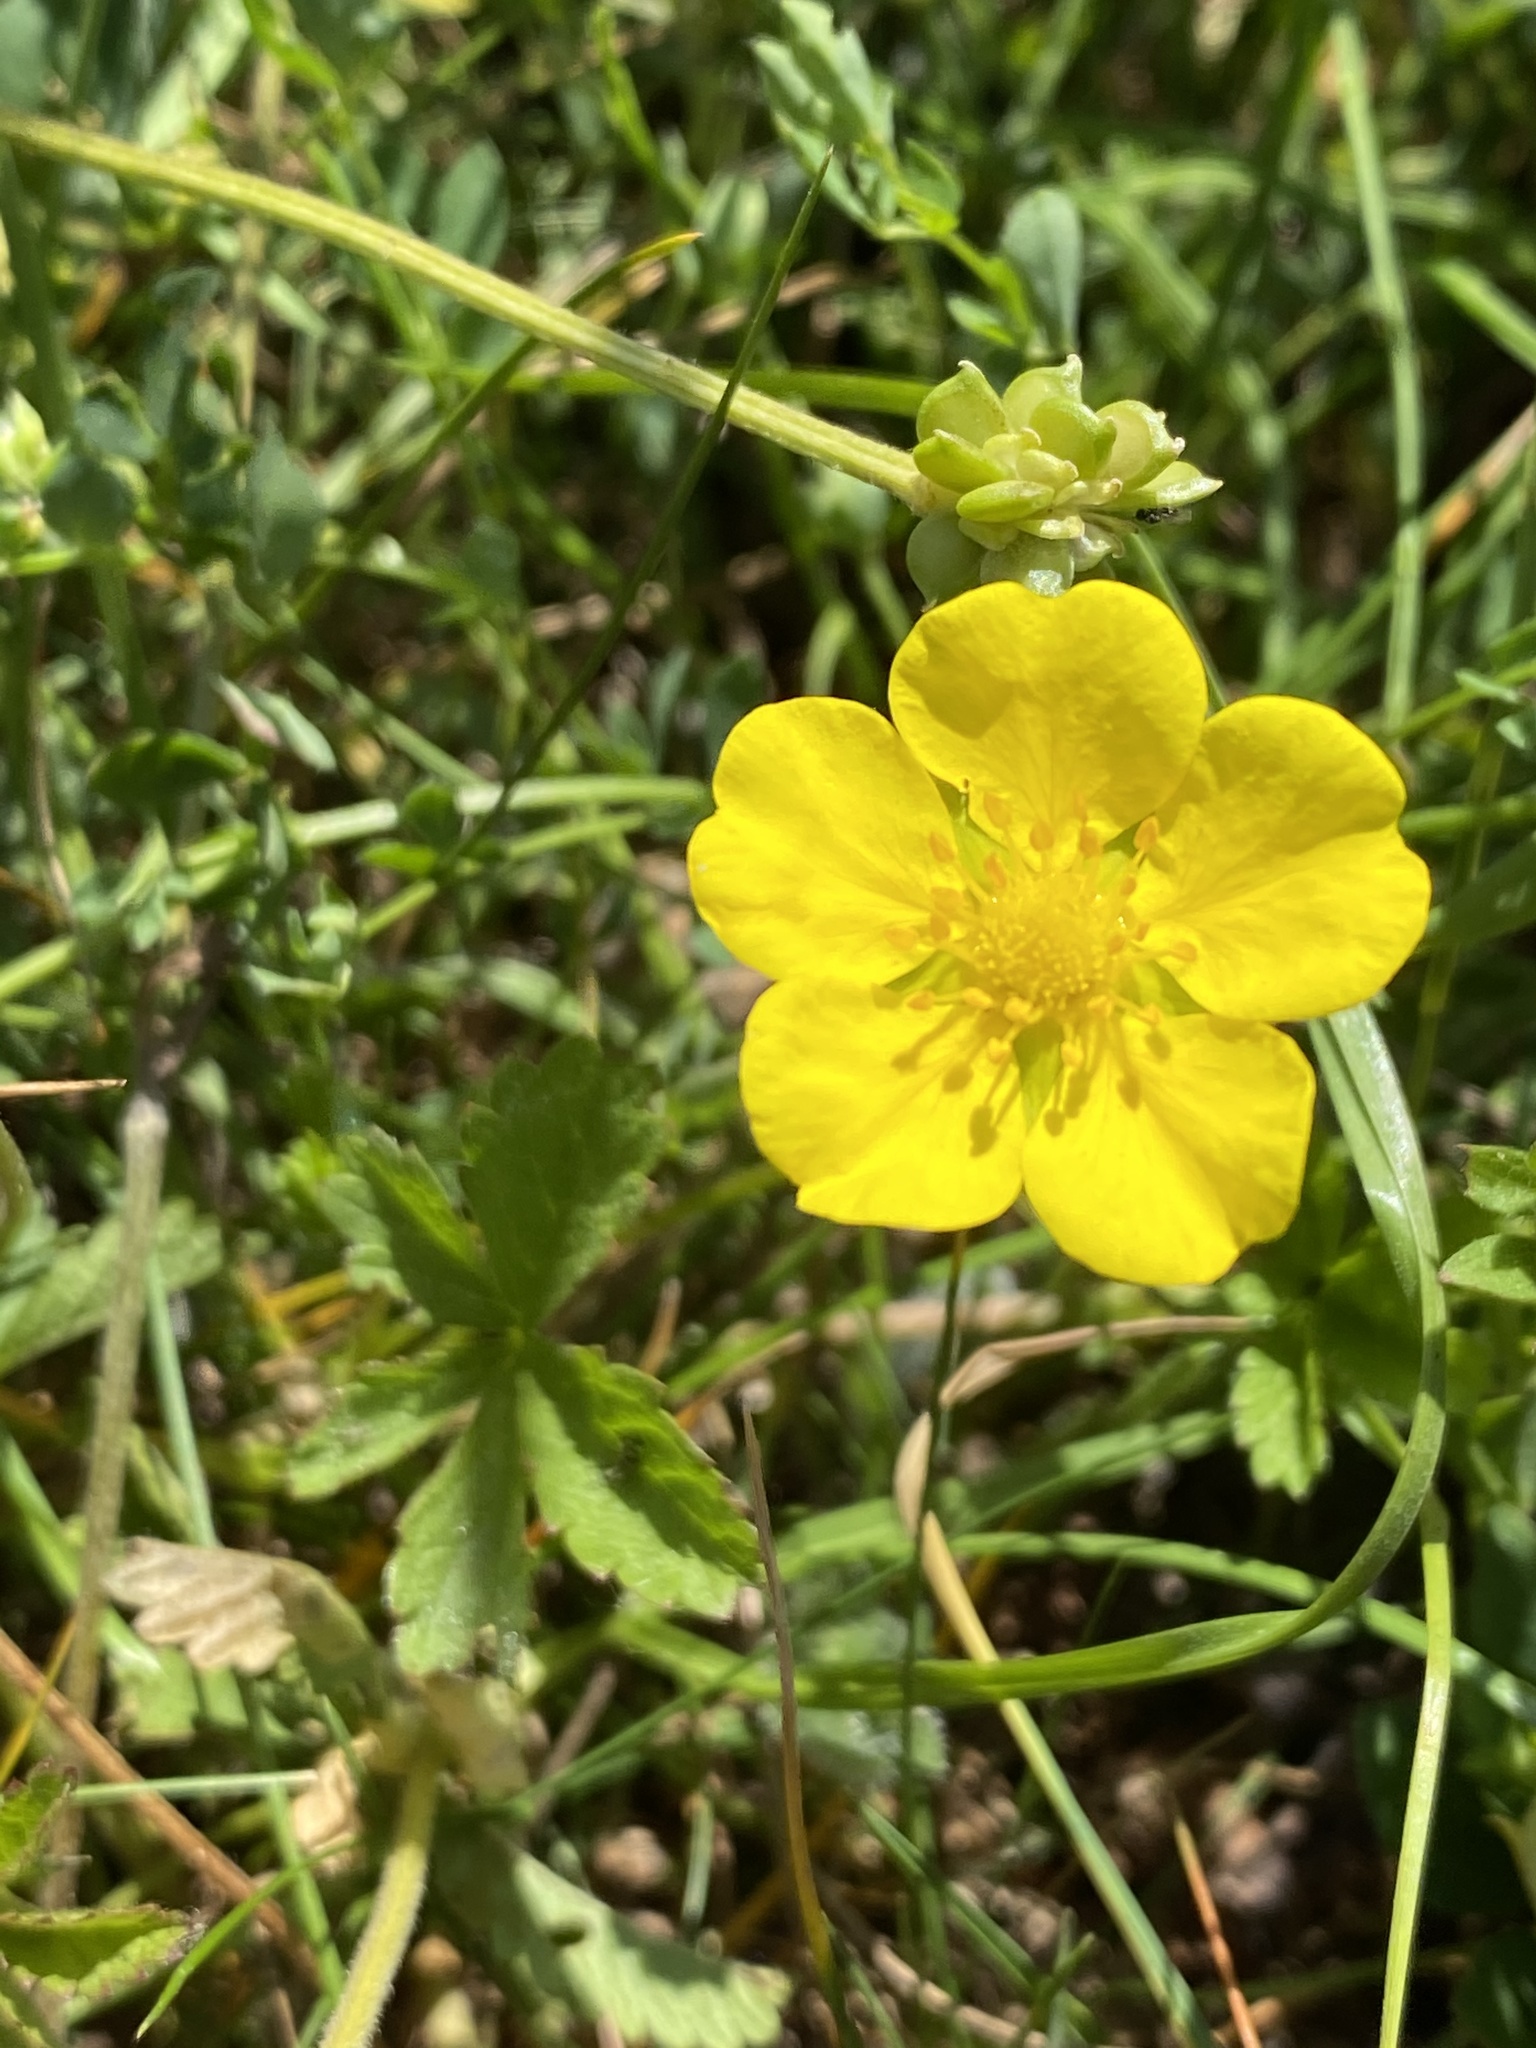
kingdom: Plantae
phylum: Tracheophyta
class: Magnoliopsida
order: Rosales
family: Rosaceae
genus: Potentilla
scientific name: Potentilla reptans
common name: Creeping cinquefoil
